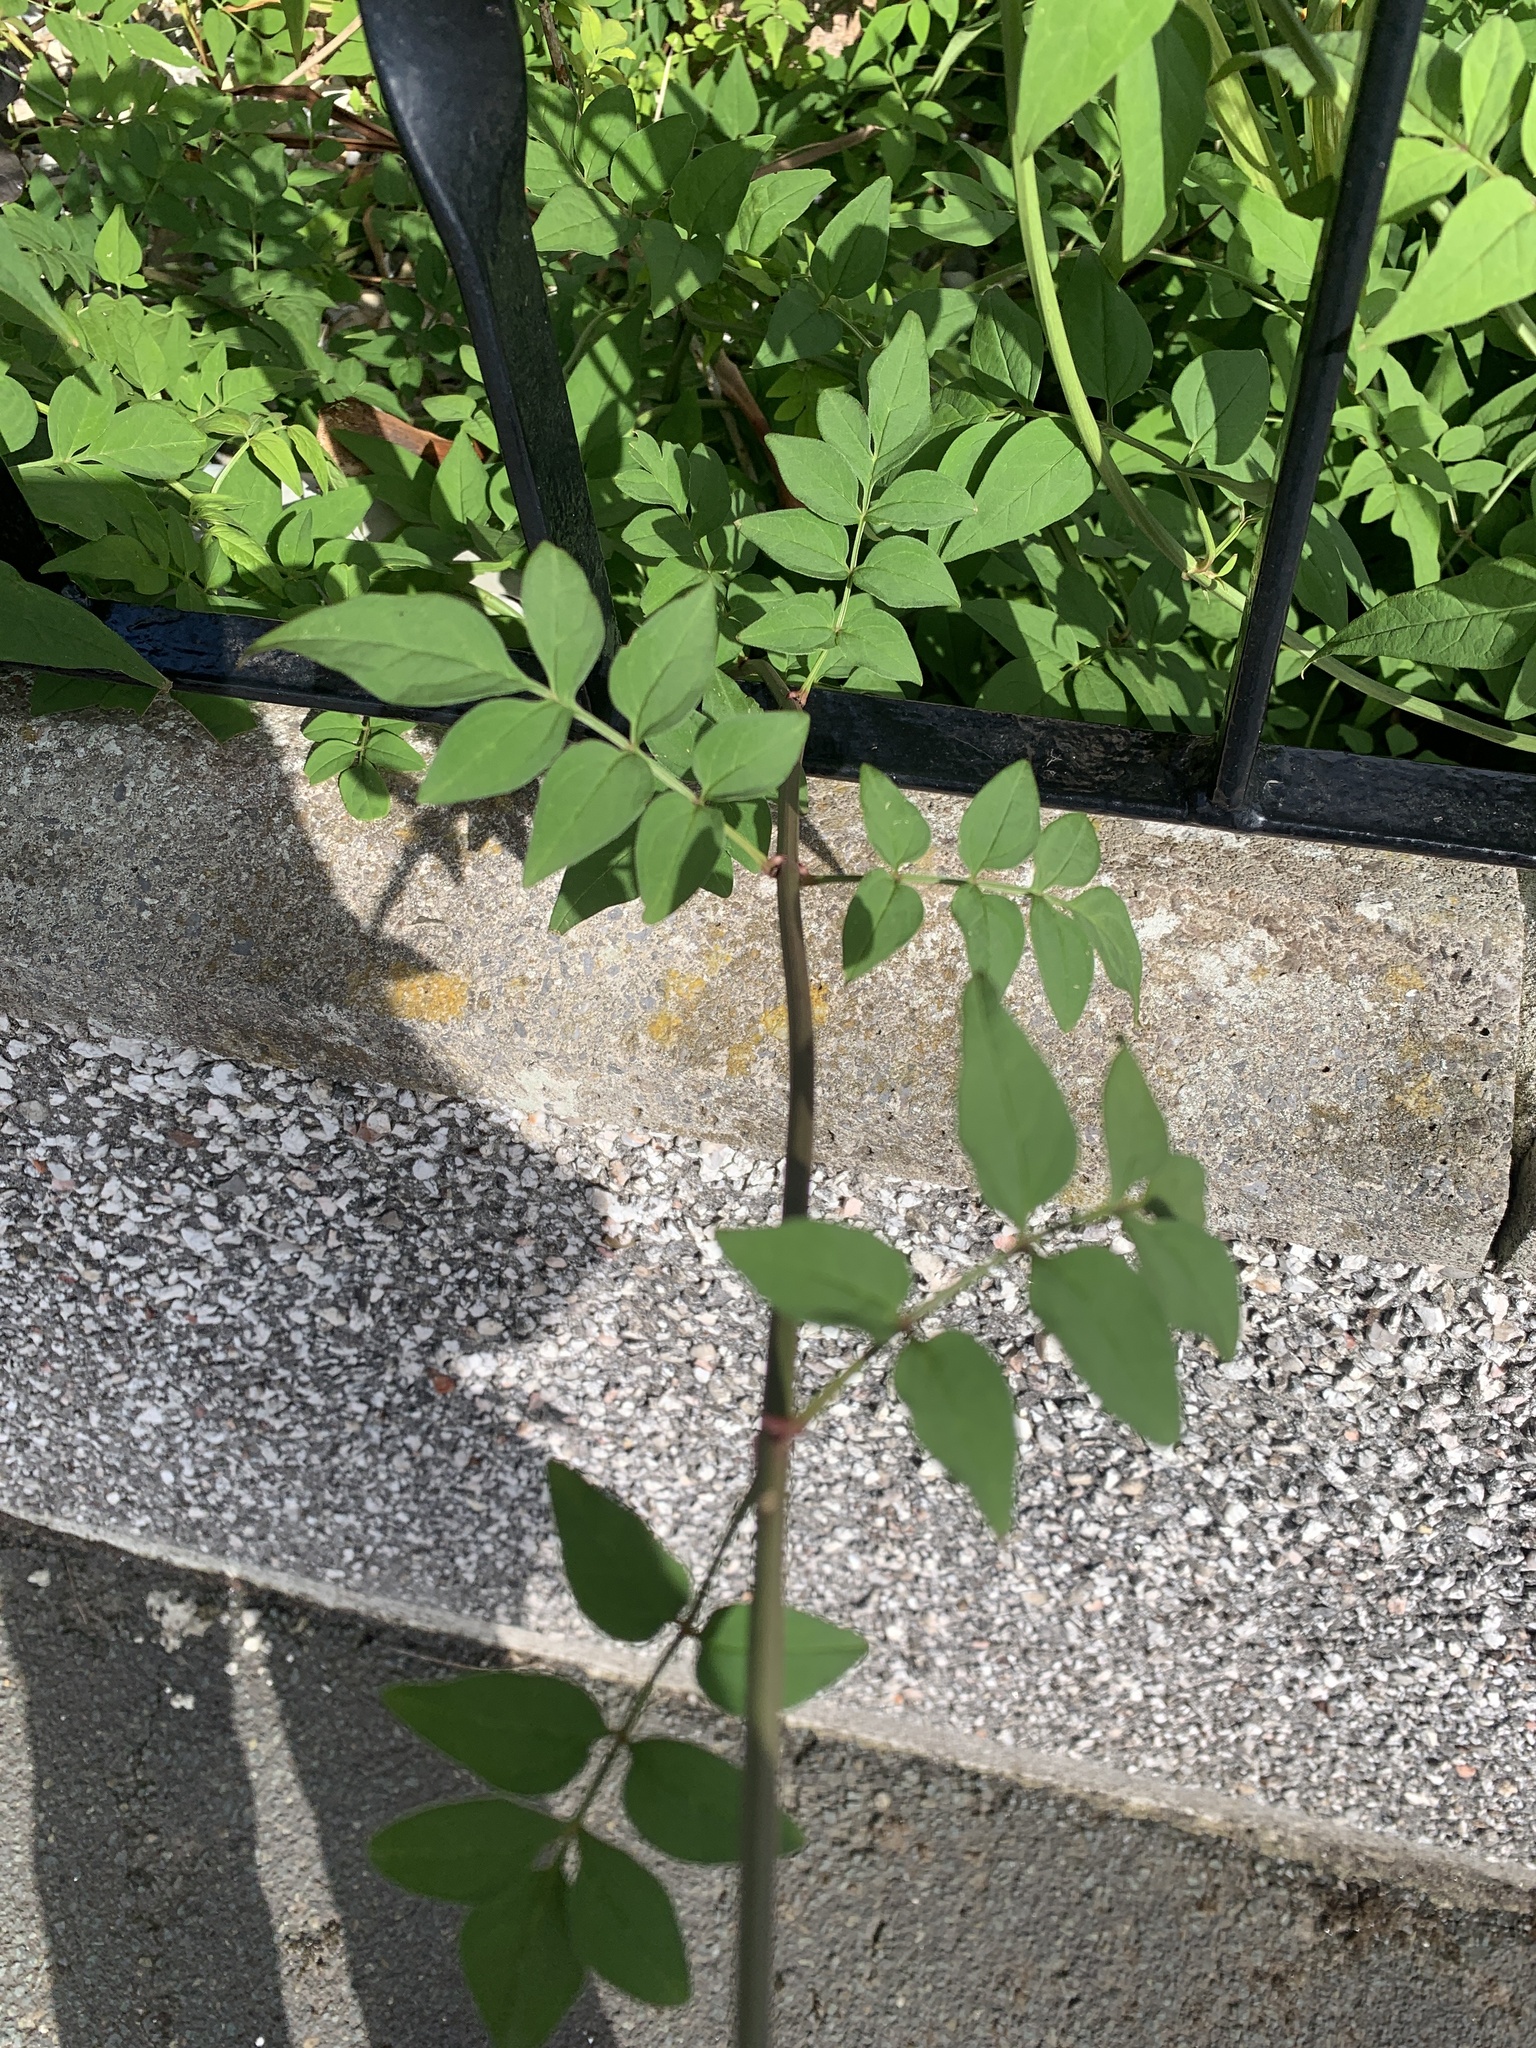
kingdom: Plantae
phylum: Tracheophyta
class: Magnoliopsida
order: Lamiales
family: Oleaceae
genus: Fraxinus
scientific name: Fraxinus excelsior
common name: European ash
